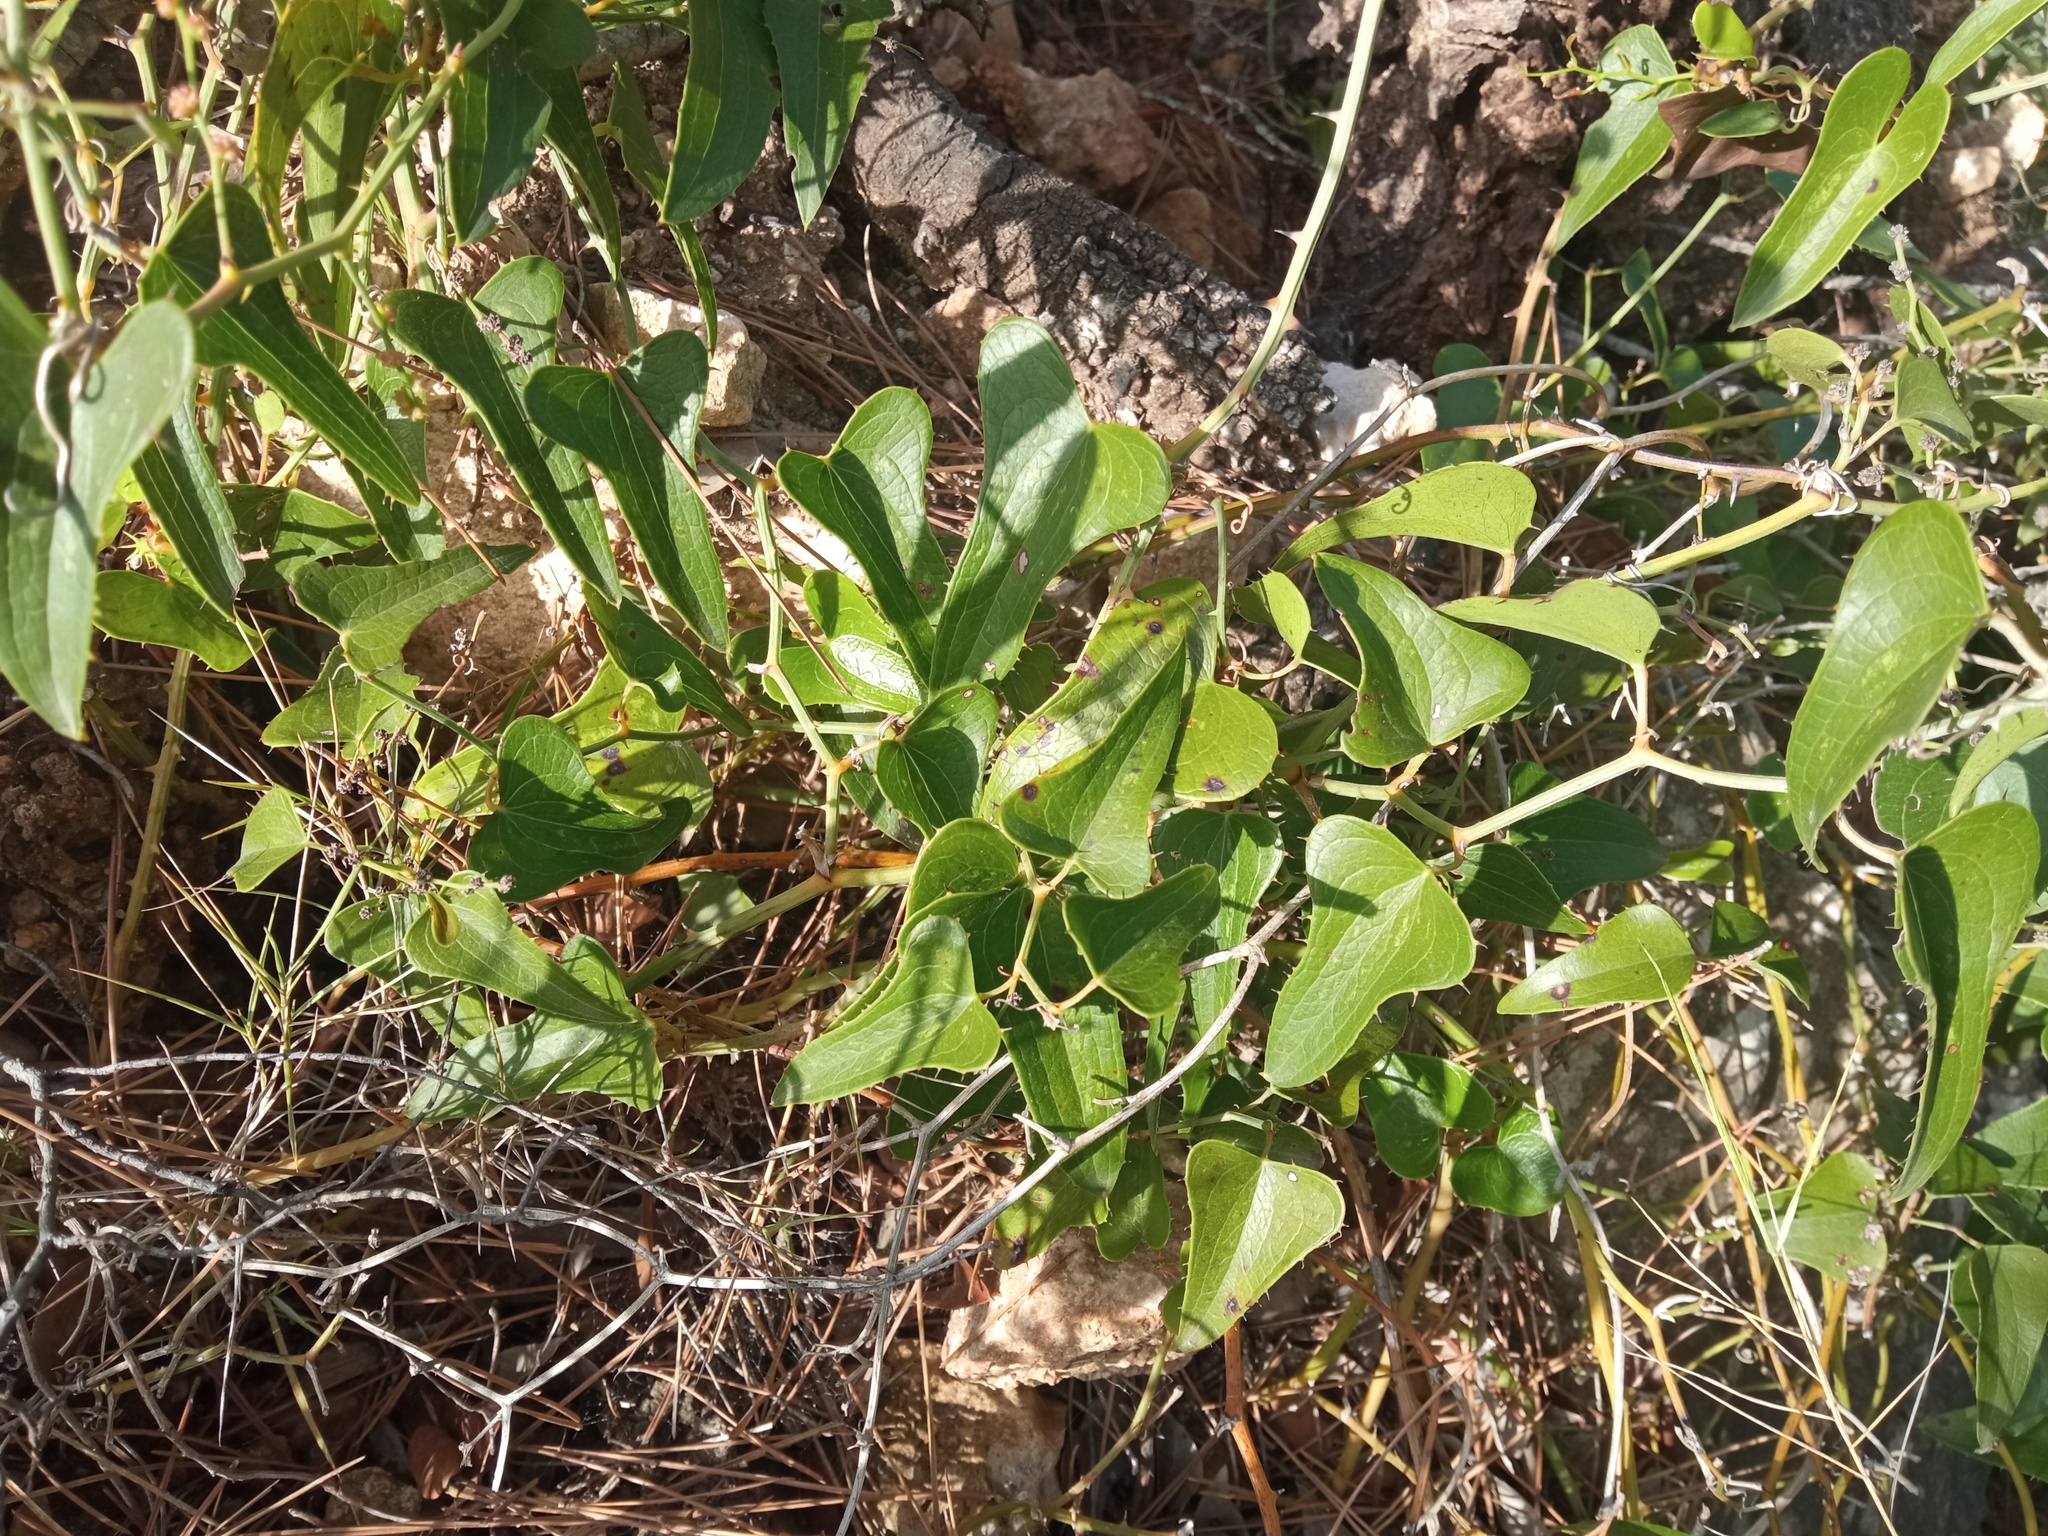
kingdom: Plantae
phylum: Tracheophyta
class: Liliopsida
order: Liliales
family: Smilacaceae
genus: Smilax
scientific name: Smilax aspera
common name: Common smilax
